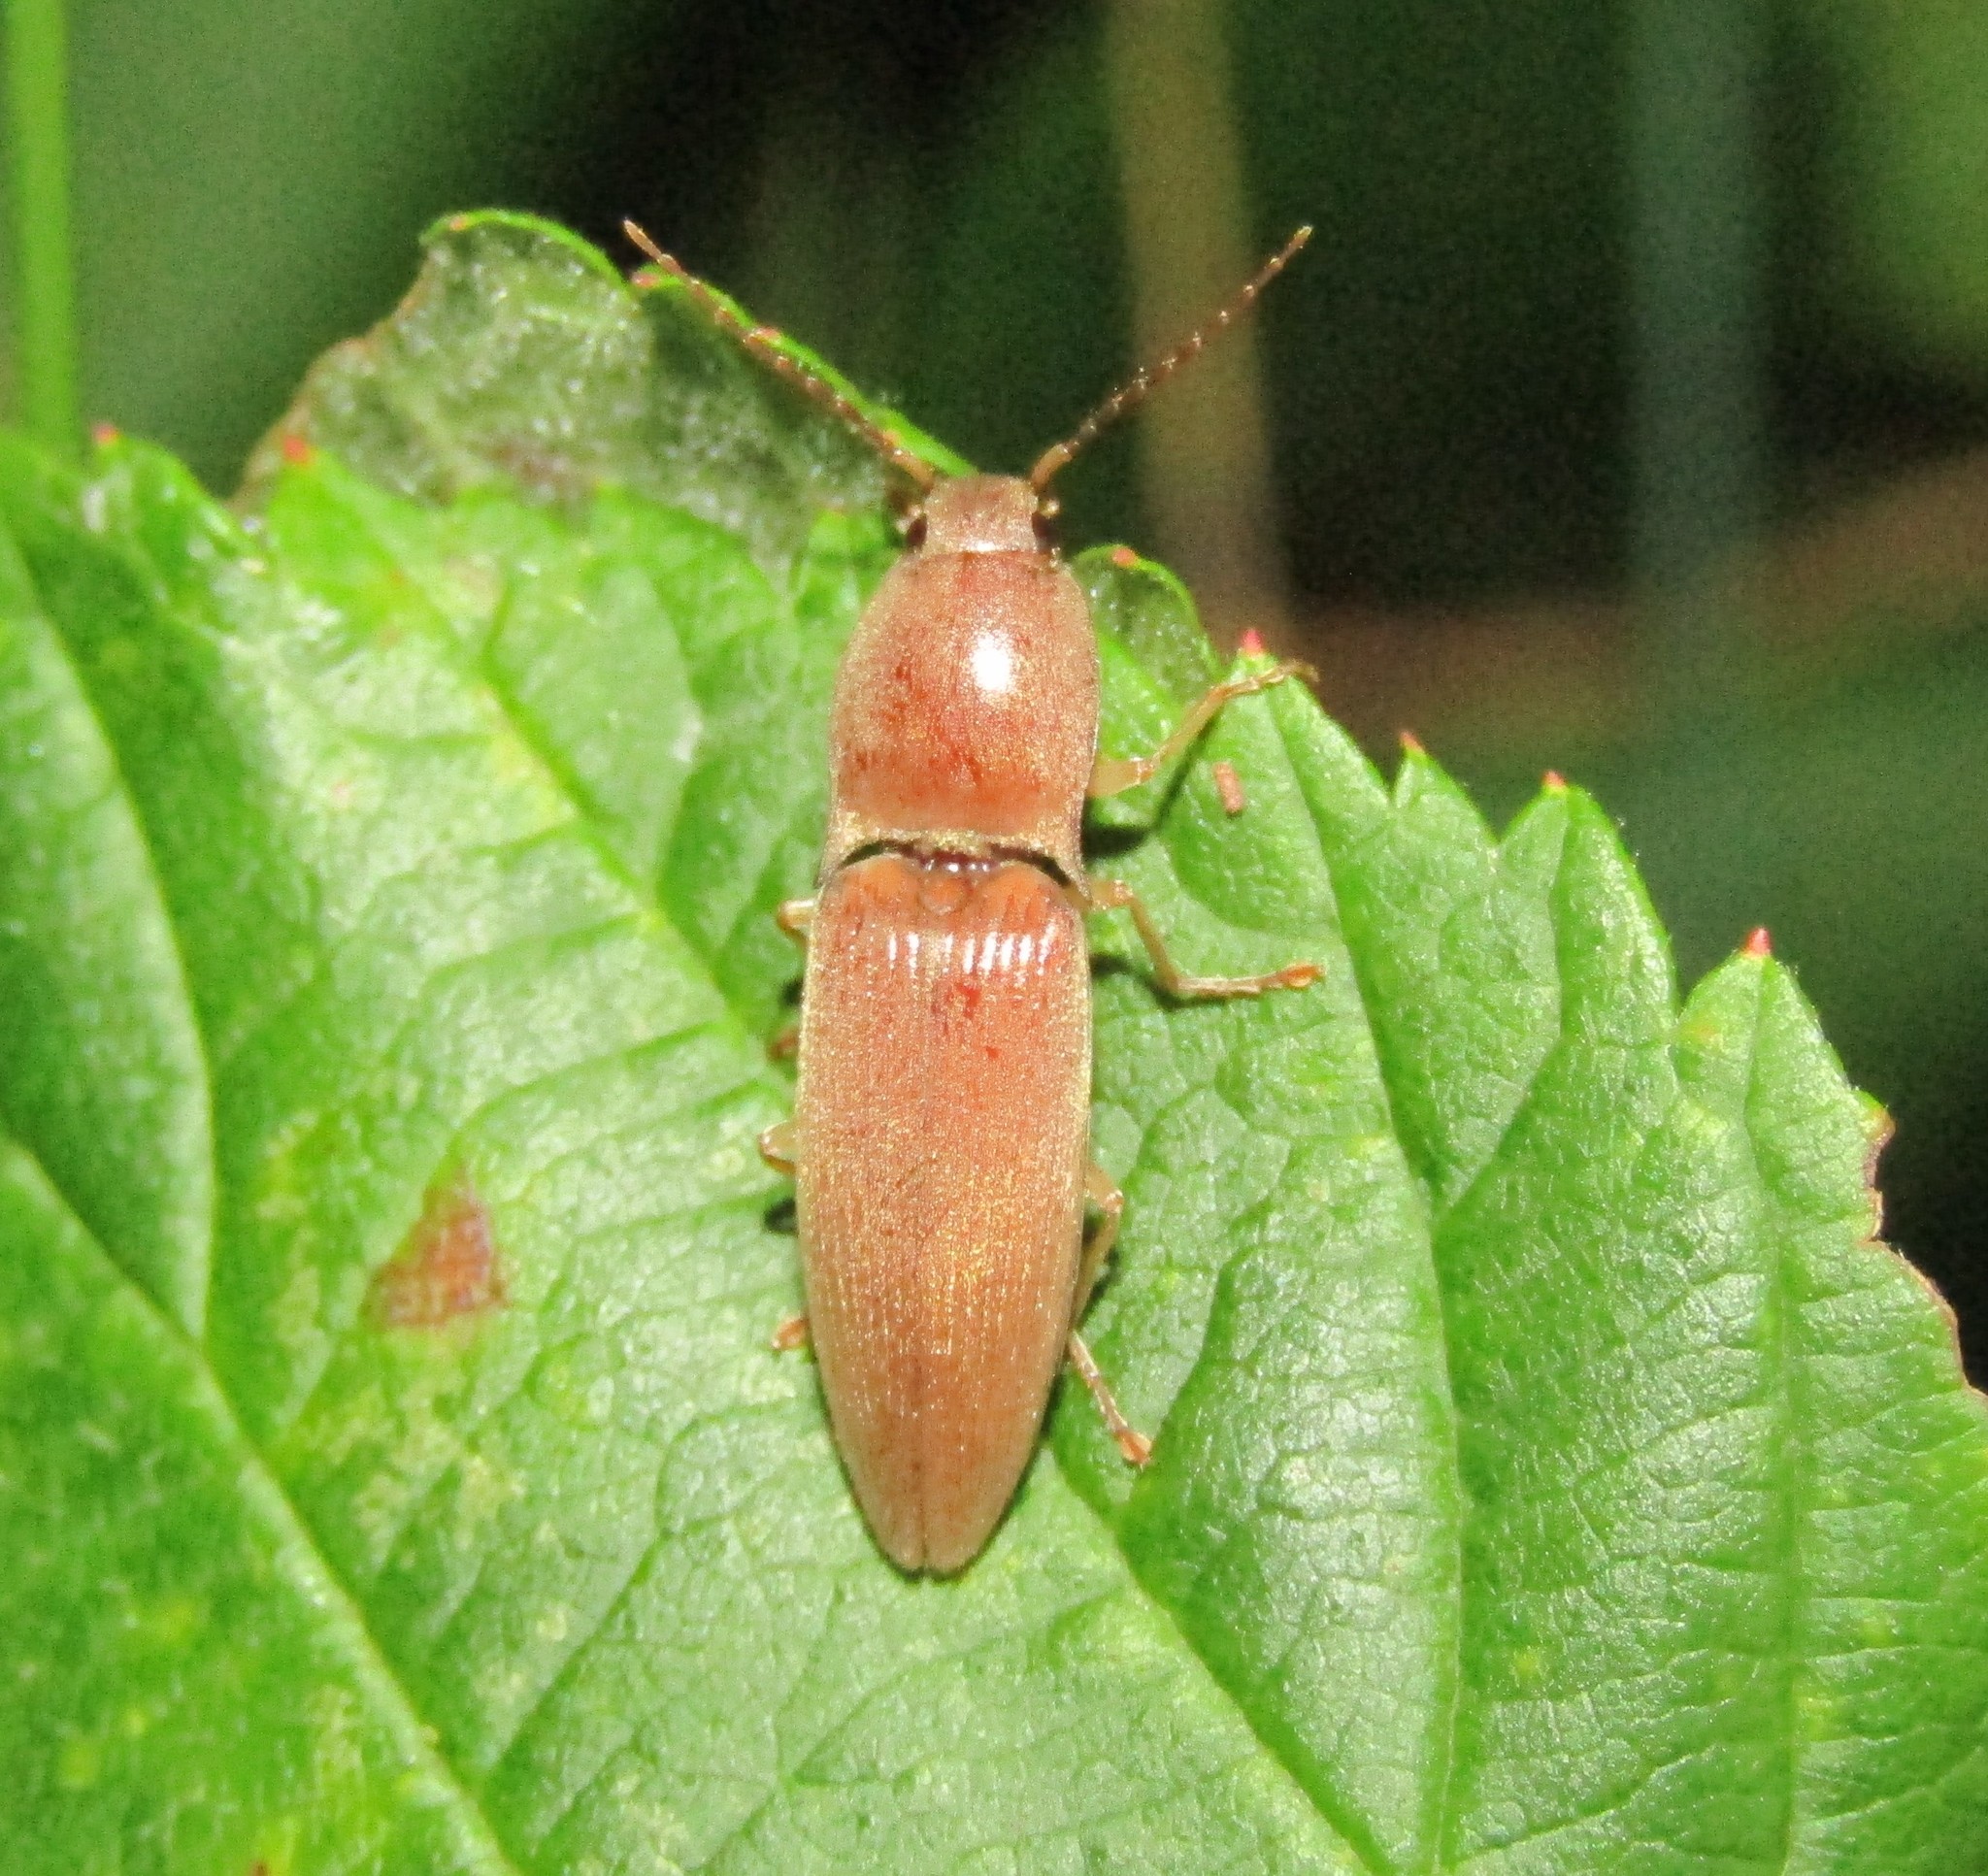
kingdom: Animalia
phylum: Arthropoda
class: Insecta
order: Coleoptera
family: Elateridae
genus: Monocrepidius
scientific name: Monocrepidius lividus
